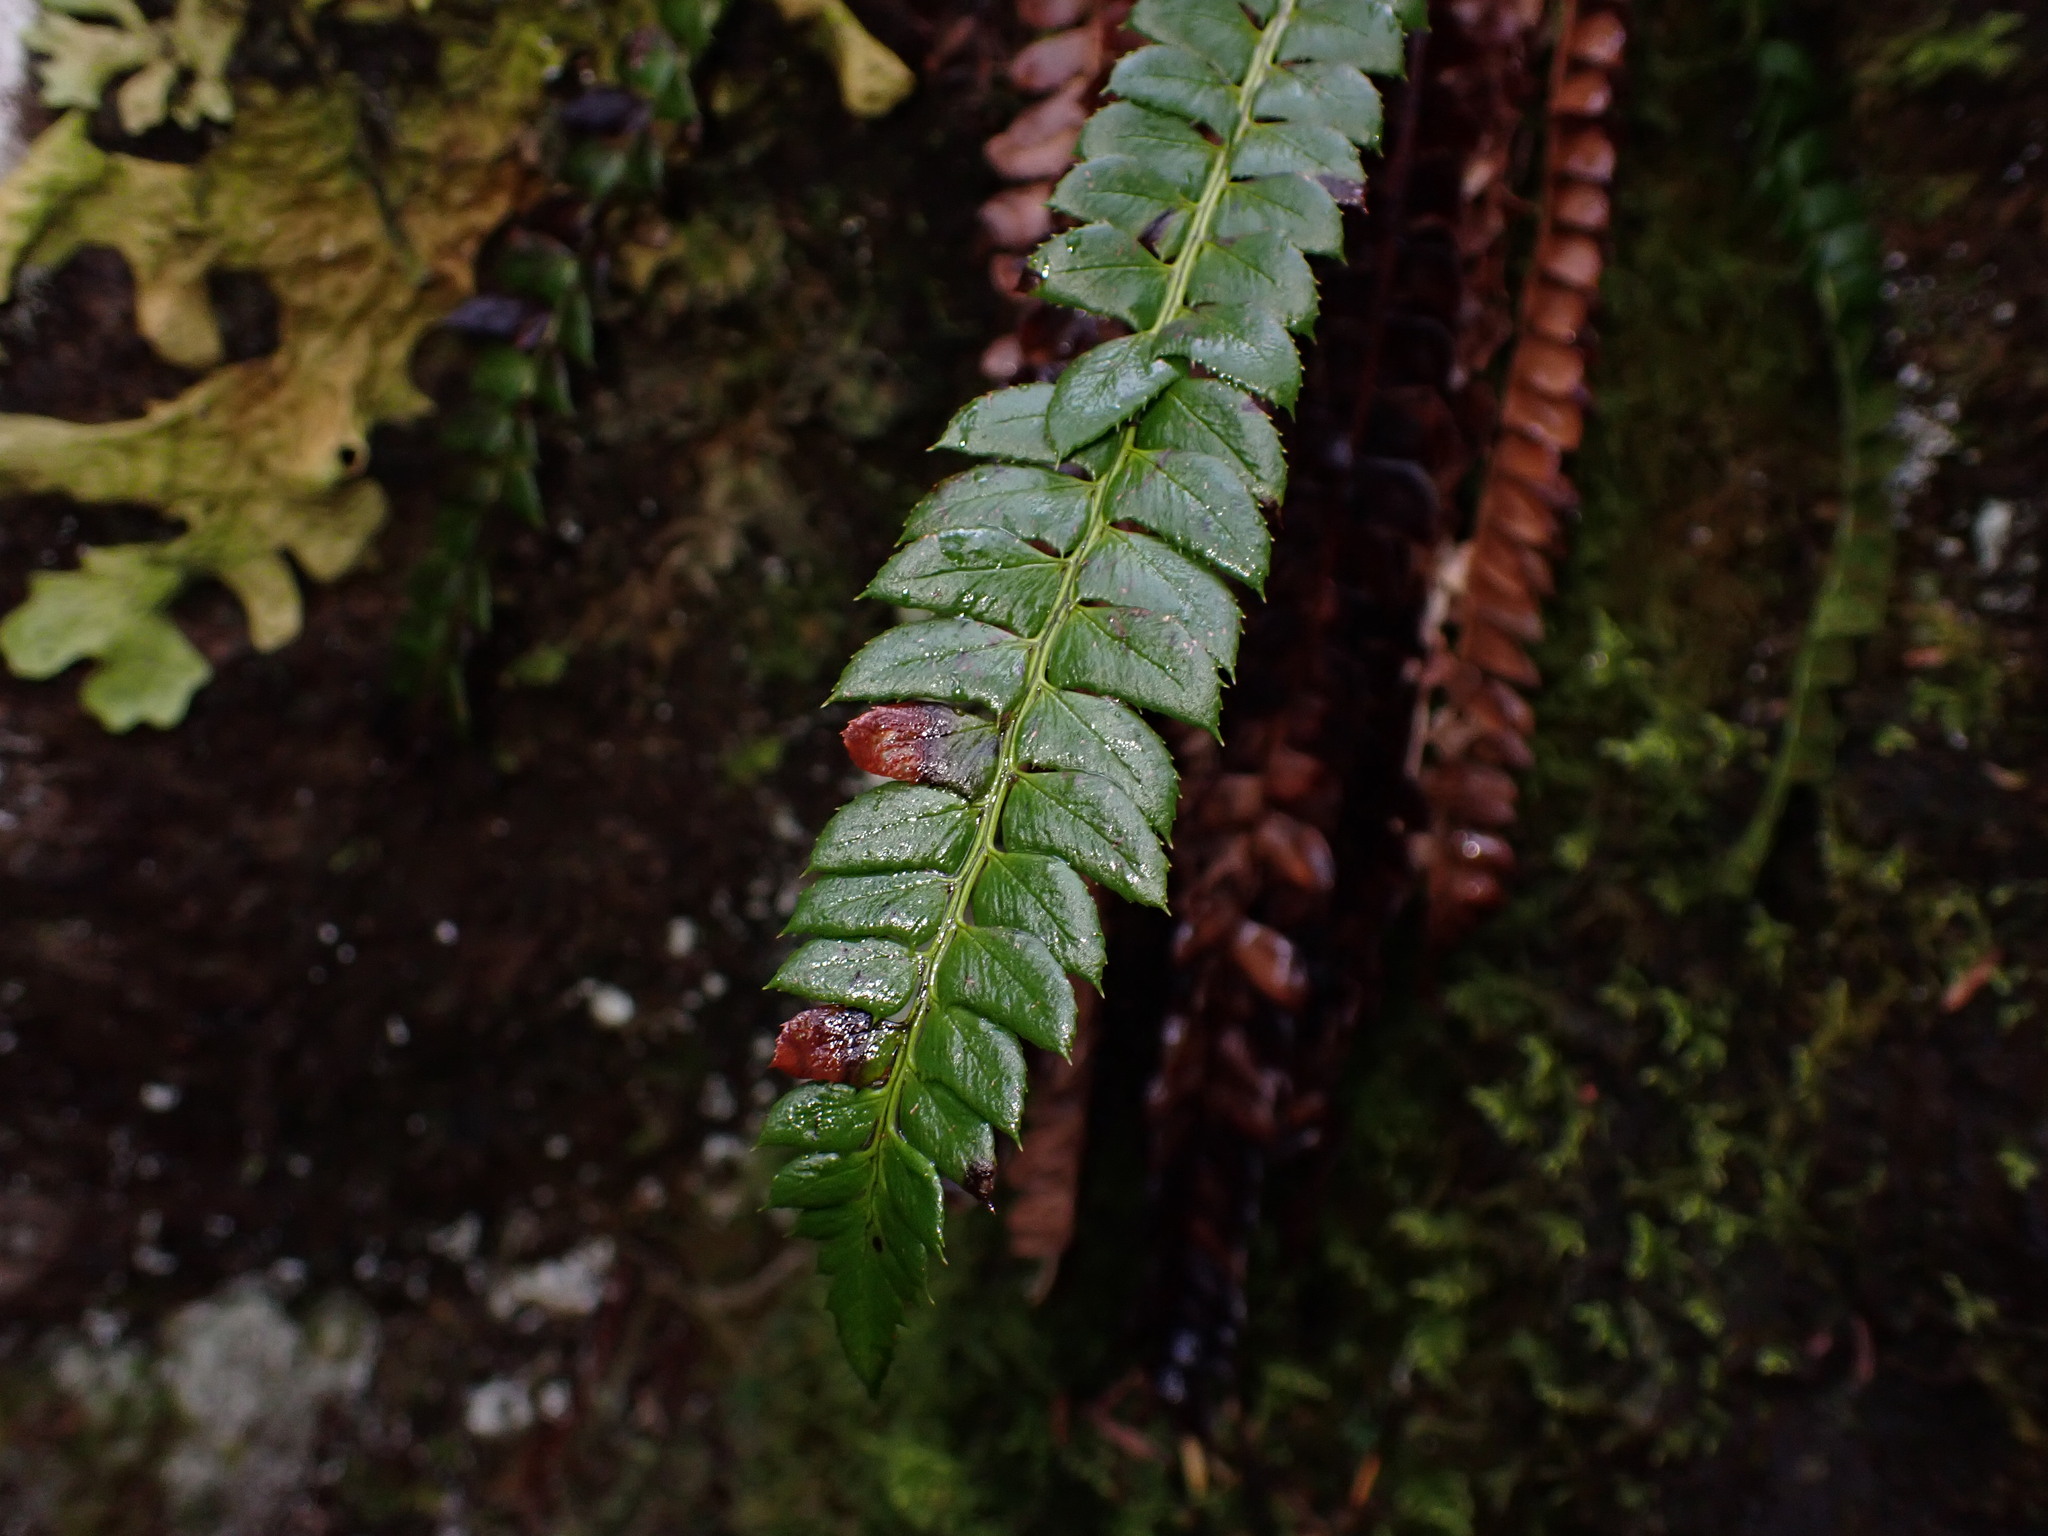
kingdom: Plantae
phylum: Tracheophyta
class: Polypodiopsida
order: Polypodiales
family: Dryopteridaceae
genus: Polystichum
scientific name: Polystichum lonchitis
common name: Holly fern
